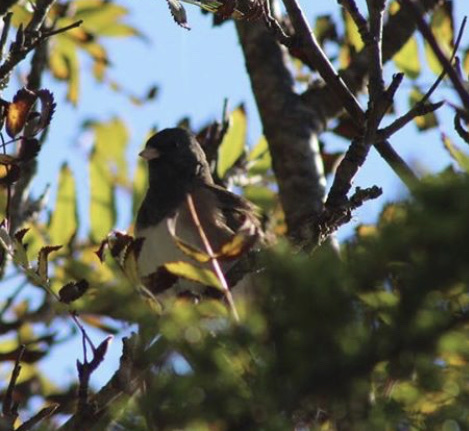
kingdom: Animalia
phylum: Chordata
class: Aves
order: Passeriformes
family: Passerellidae
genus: Junco
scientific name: Junco hyemalis
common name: Dark-eyed junco
